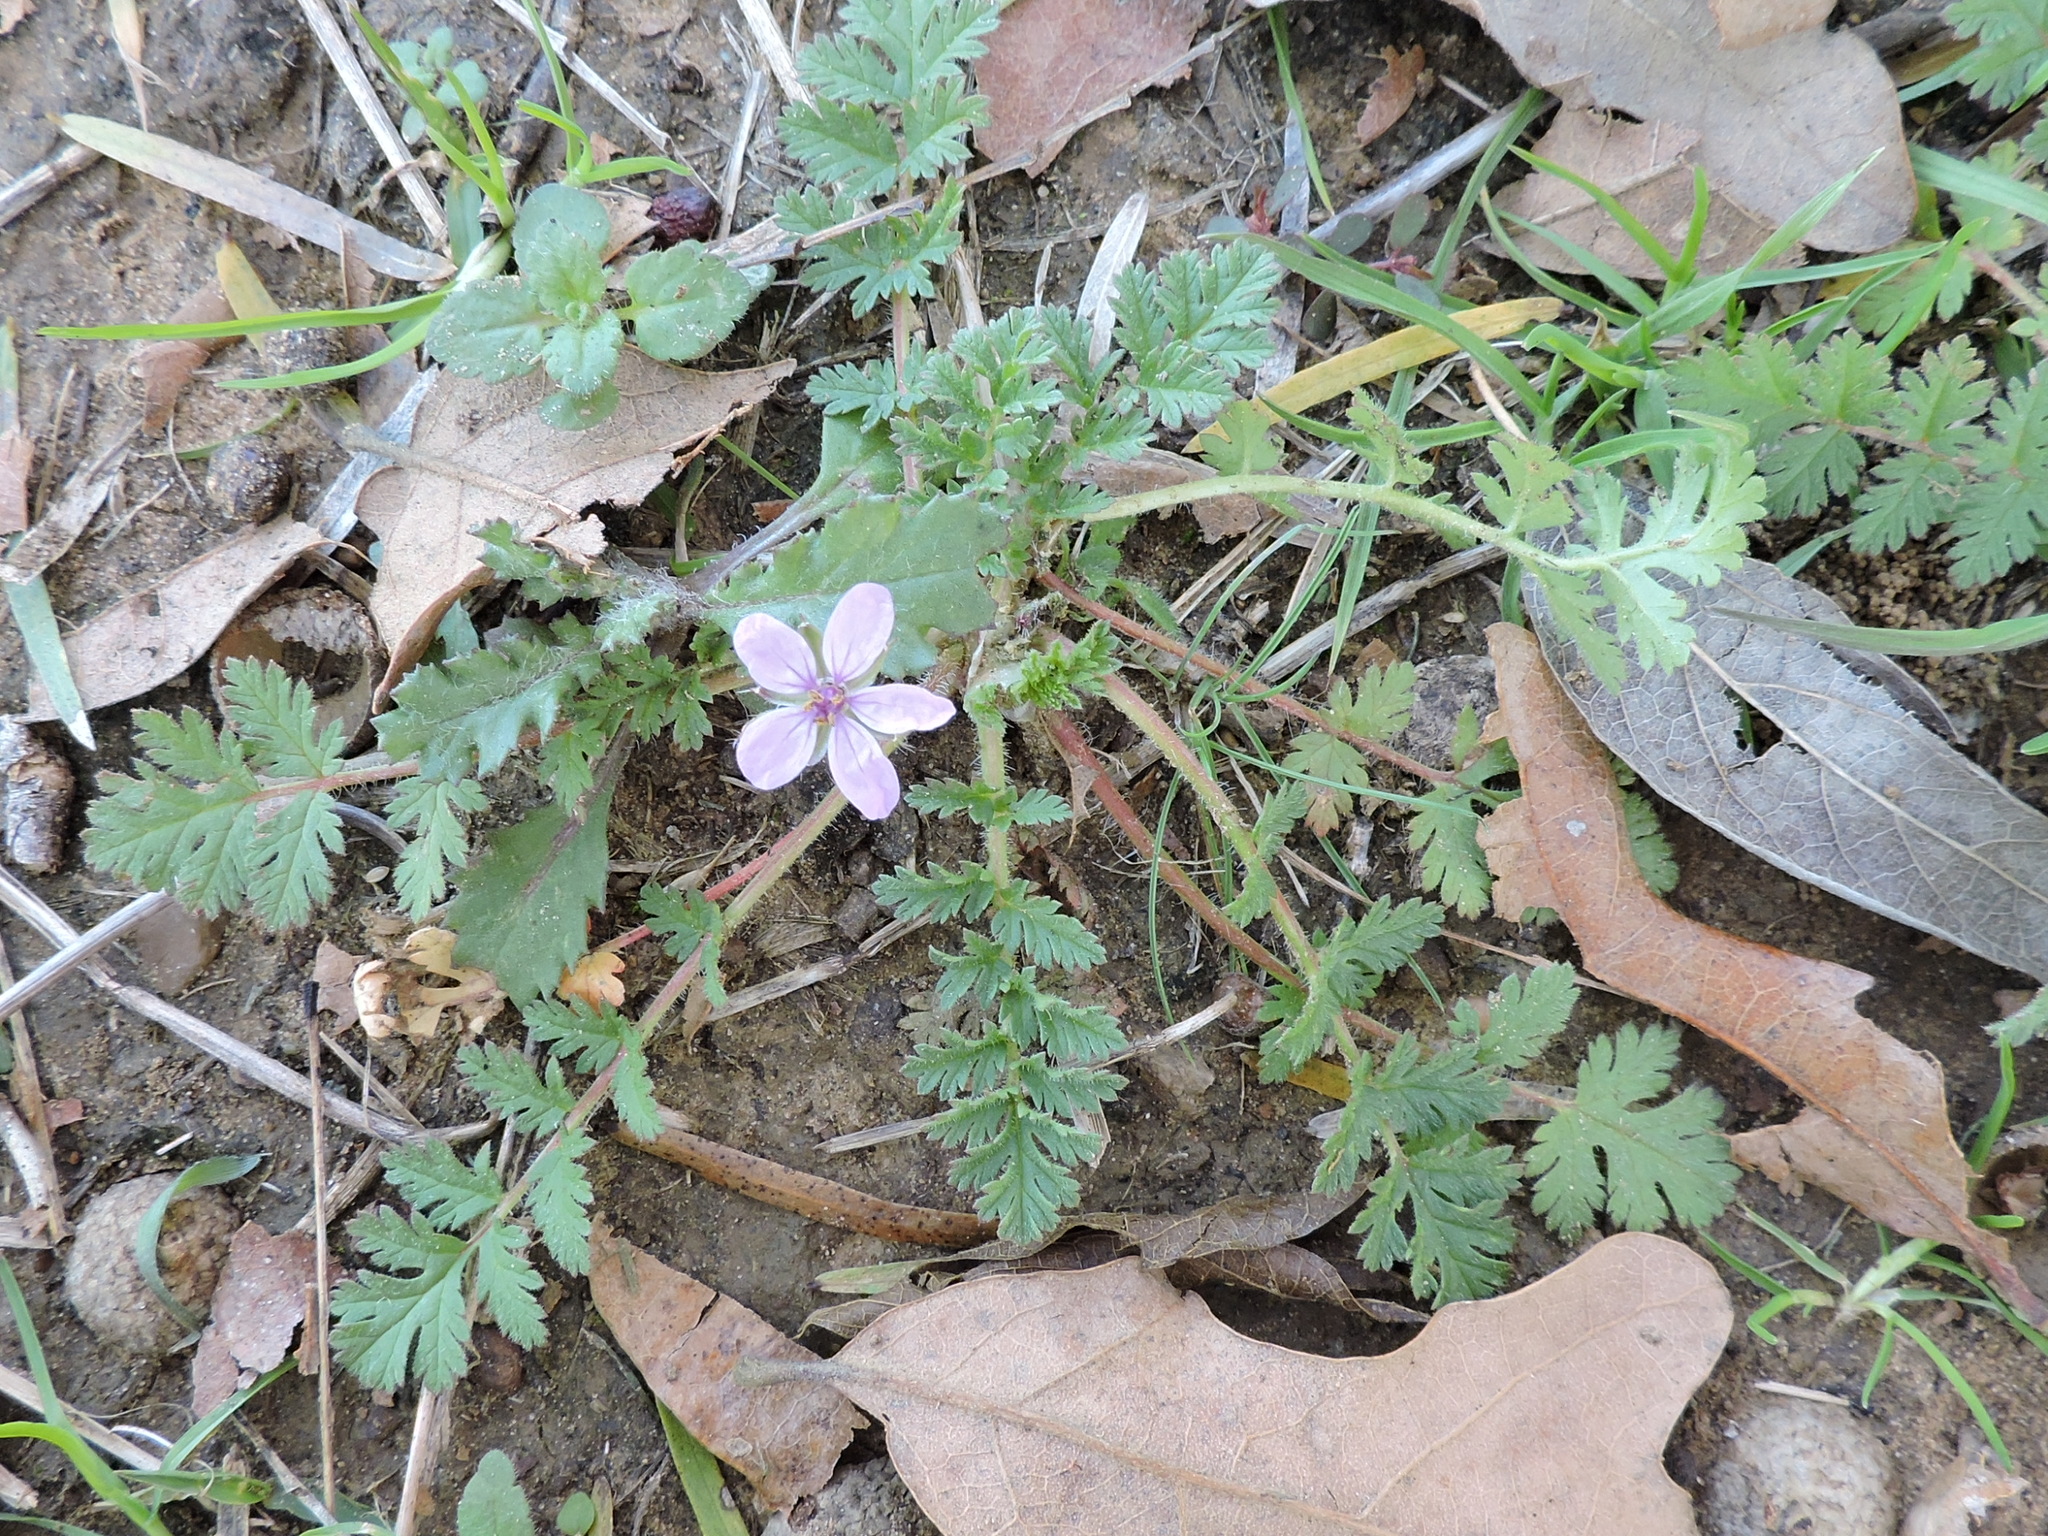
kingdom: Plantae
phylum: Tracheophyta
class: Magnoliopsida
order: Geraniales
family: Geraniaceae
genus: Erodium
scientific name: Erodium cicutarium
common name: Common stork's-bill
